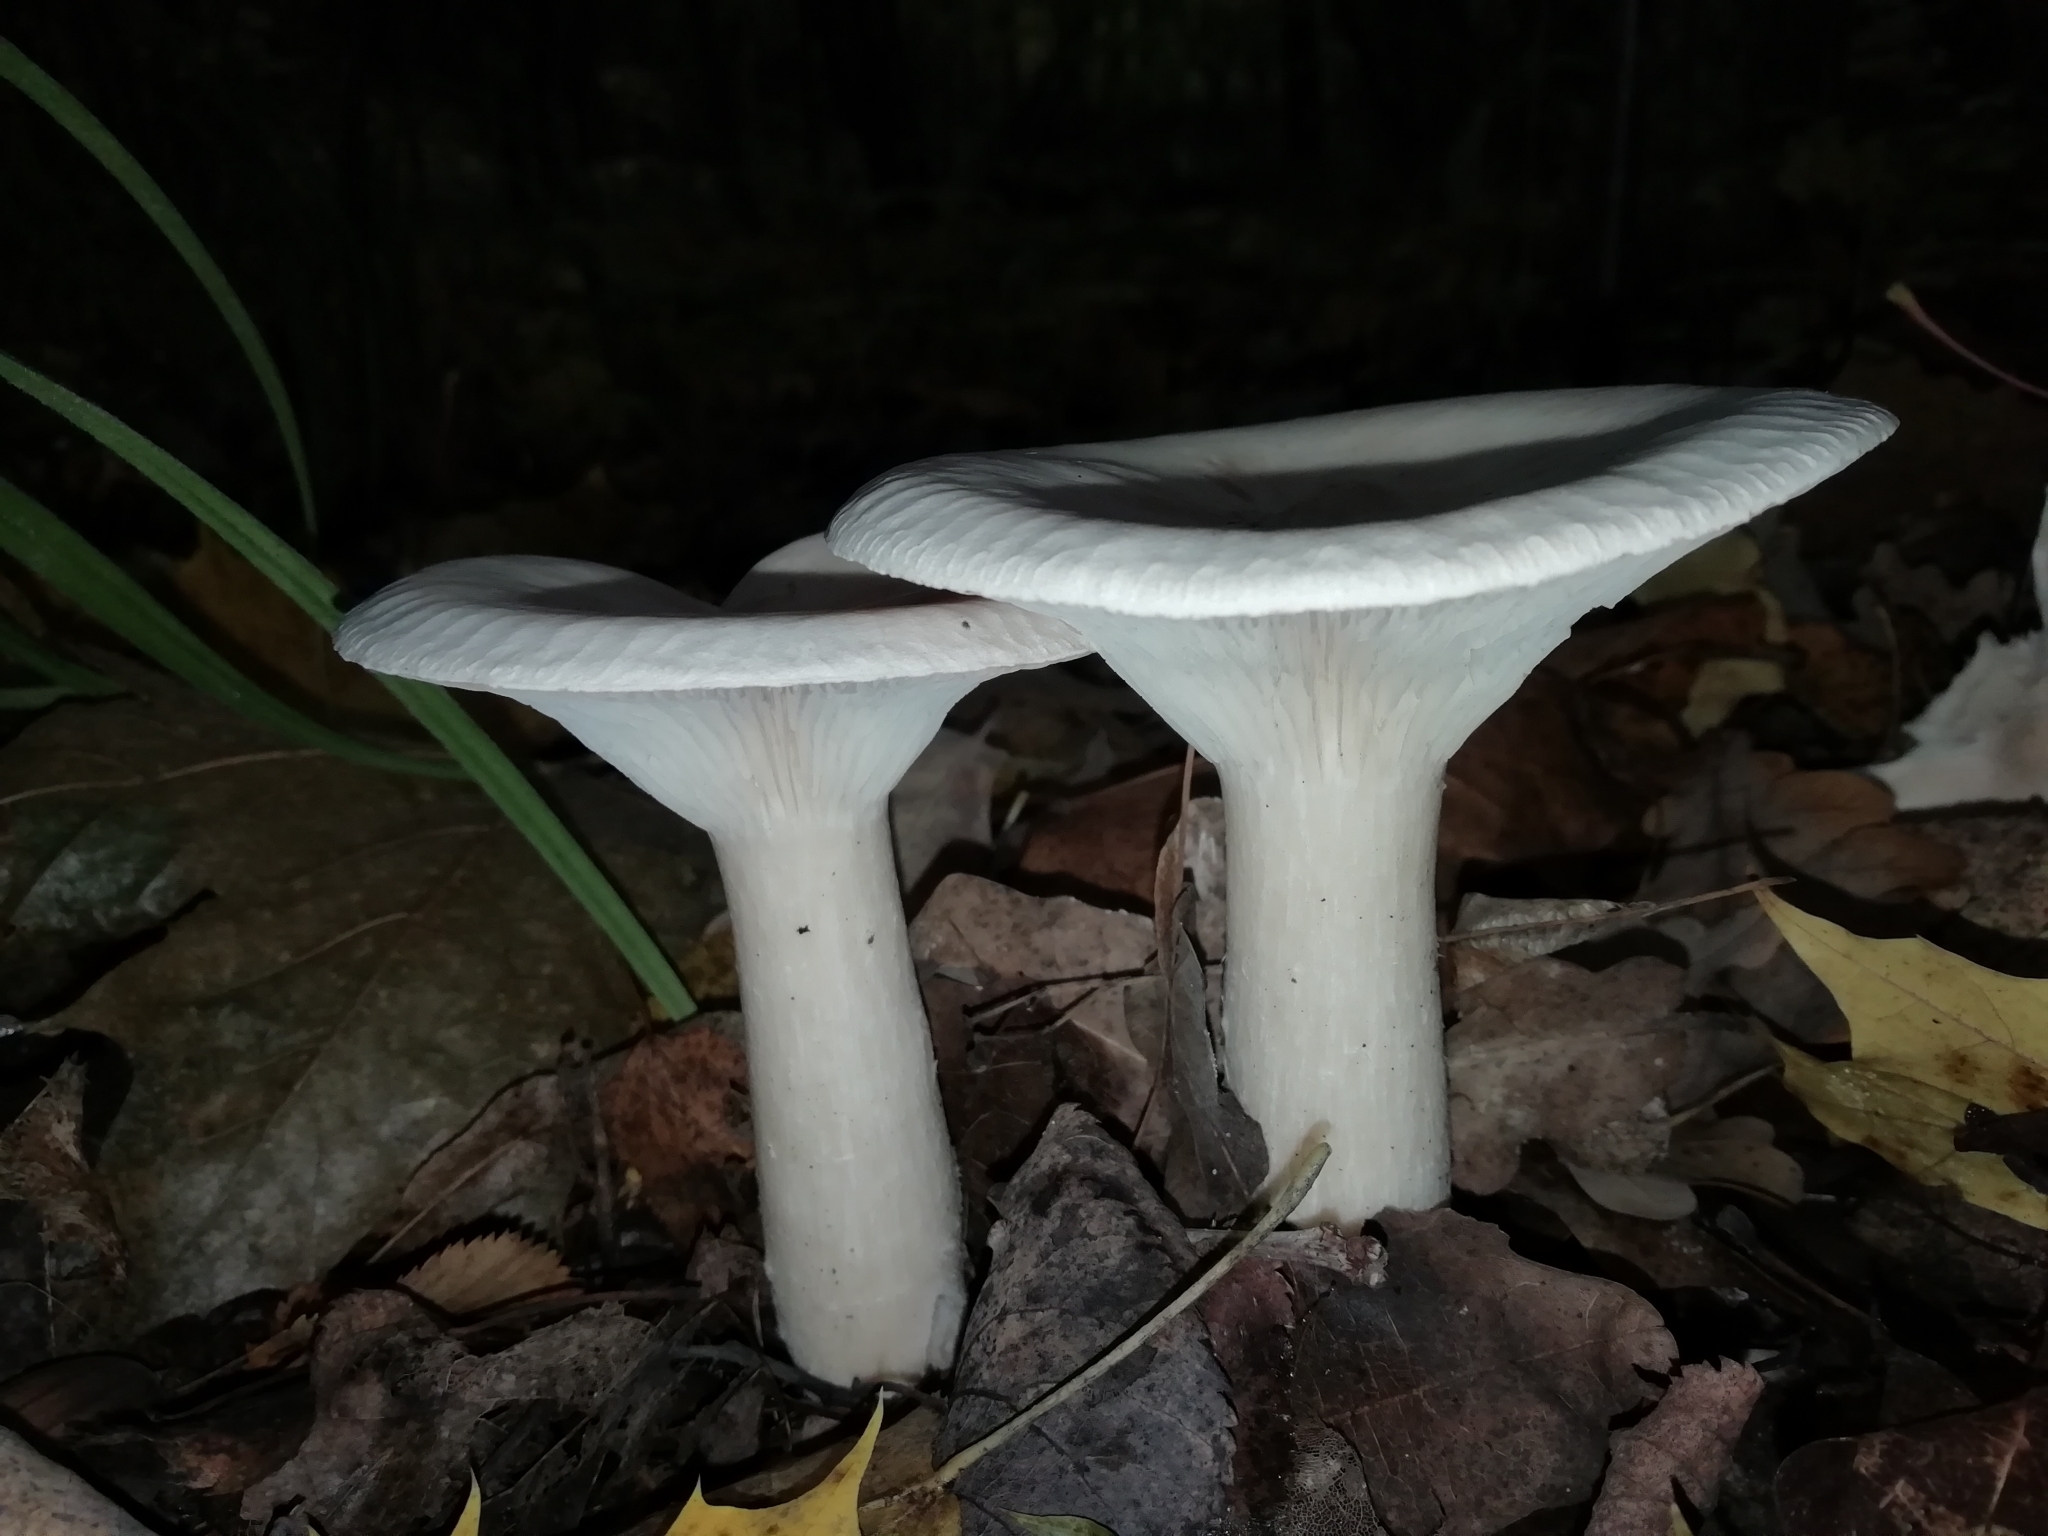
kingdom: Fungi
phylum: Basidiomycota
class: Agaricomycetes
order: Agaricales
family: Tricholomataceae
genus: Infundibulicybe
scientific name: Infundibulicybe geotropa
